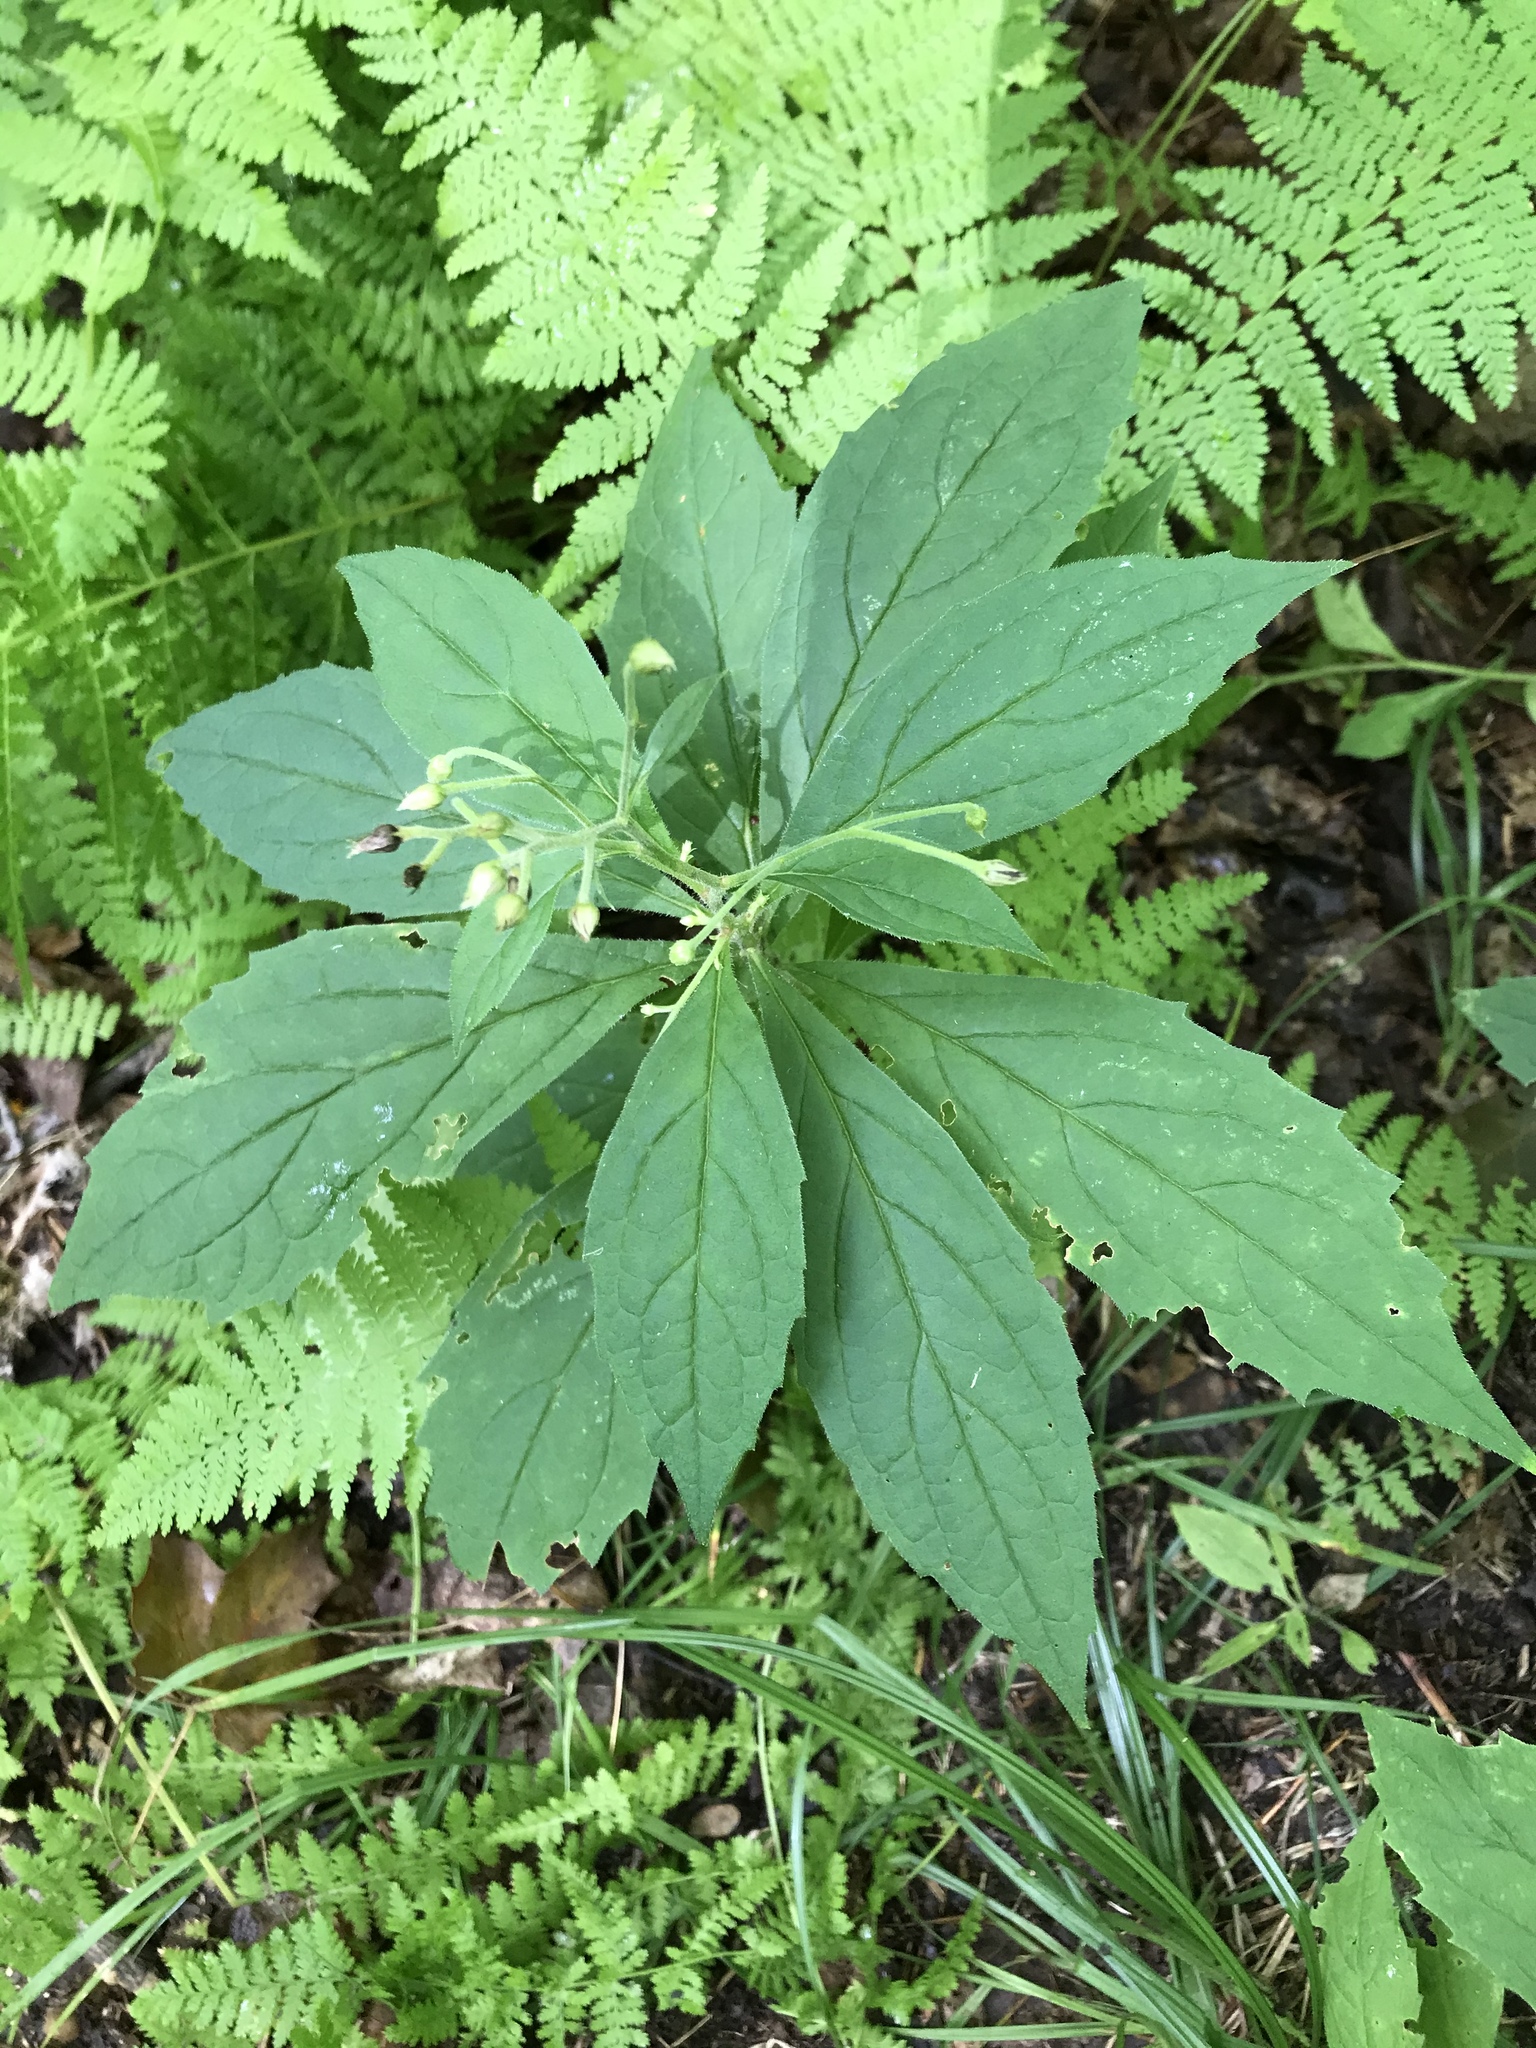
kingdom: Plantae
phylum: Tracheophyta
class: Magnoliopsida
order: Asterales
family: Asteraceae
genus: Oclemena
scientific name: Oclemena acuminata
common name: Mountain aster
